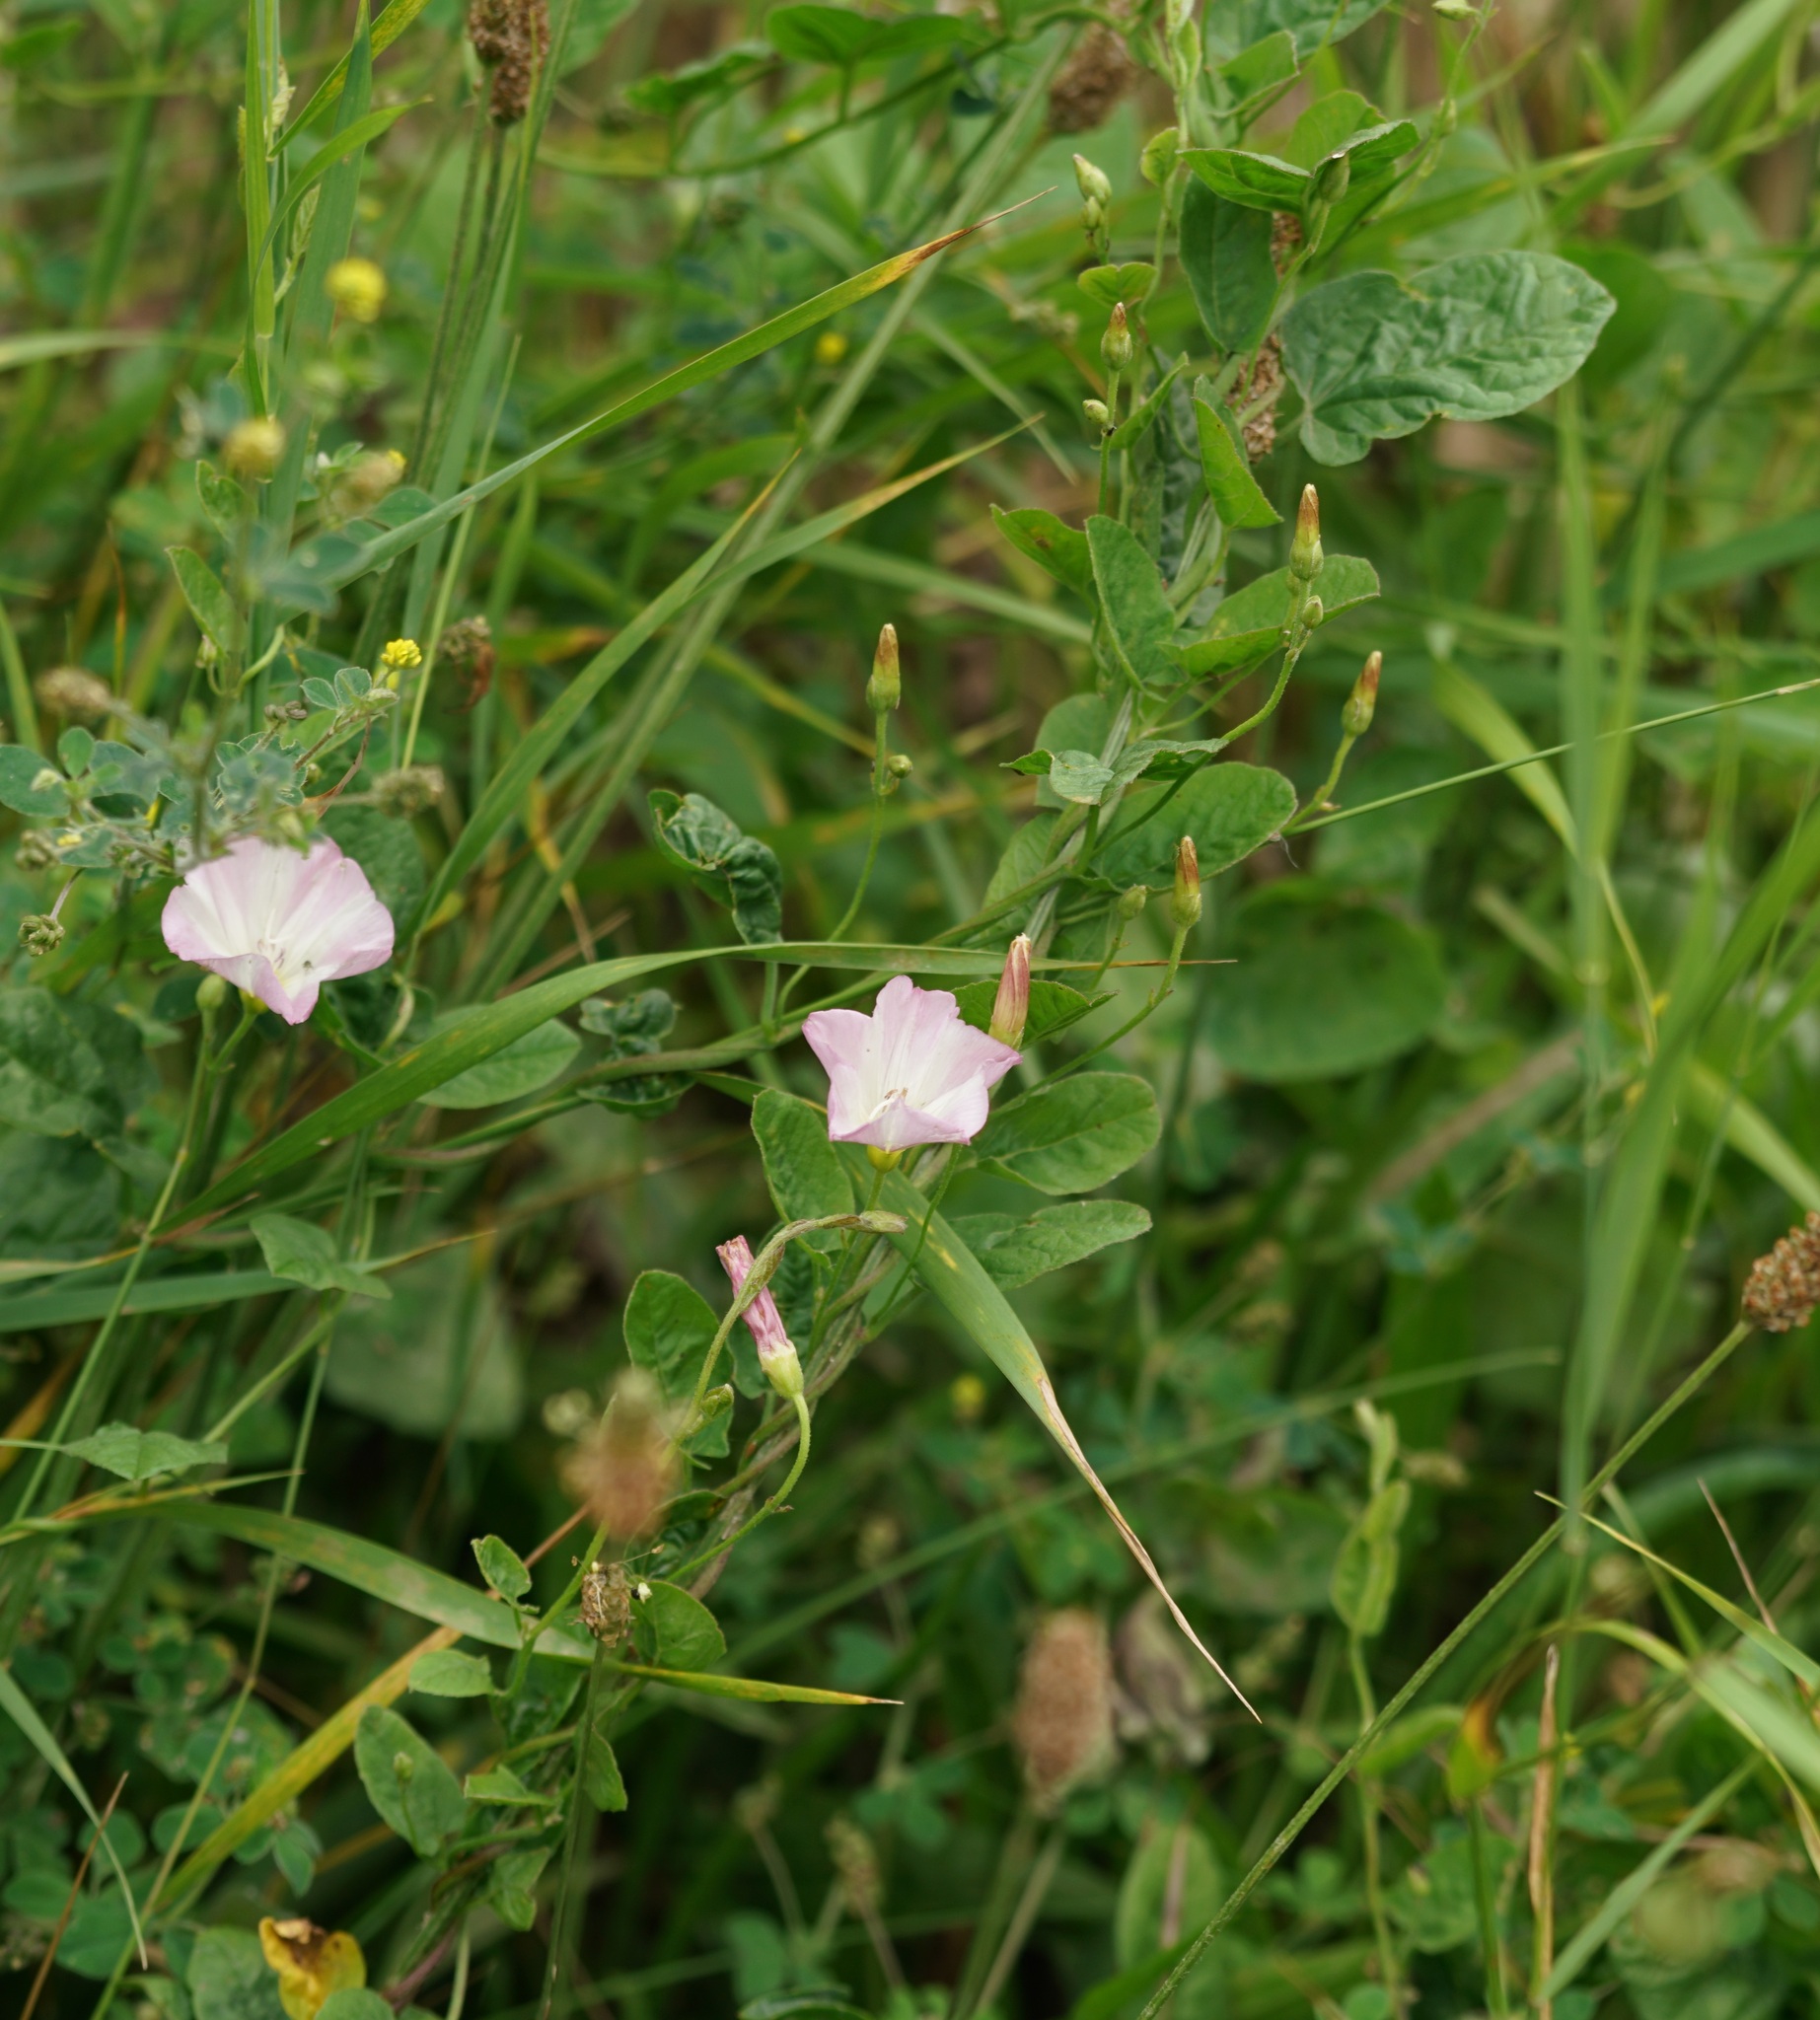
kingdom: Plantae
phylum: Tracheophyta
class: Magnoliopsida
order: Solanales
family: Convolvulaceae
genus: Convolvulus
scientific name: Convolvulus arvensis
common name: Field bindweed
